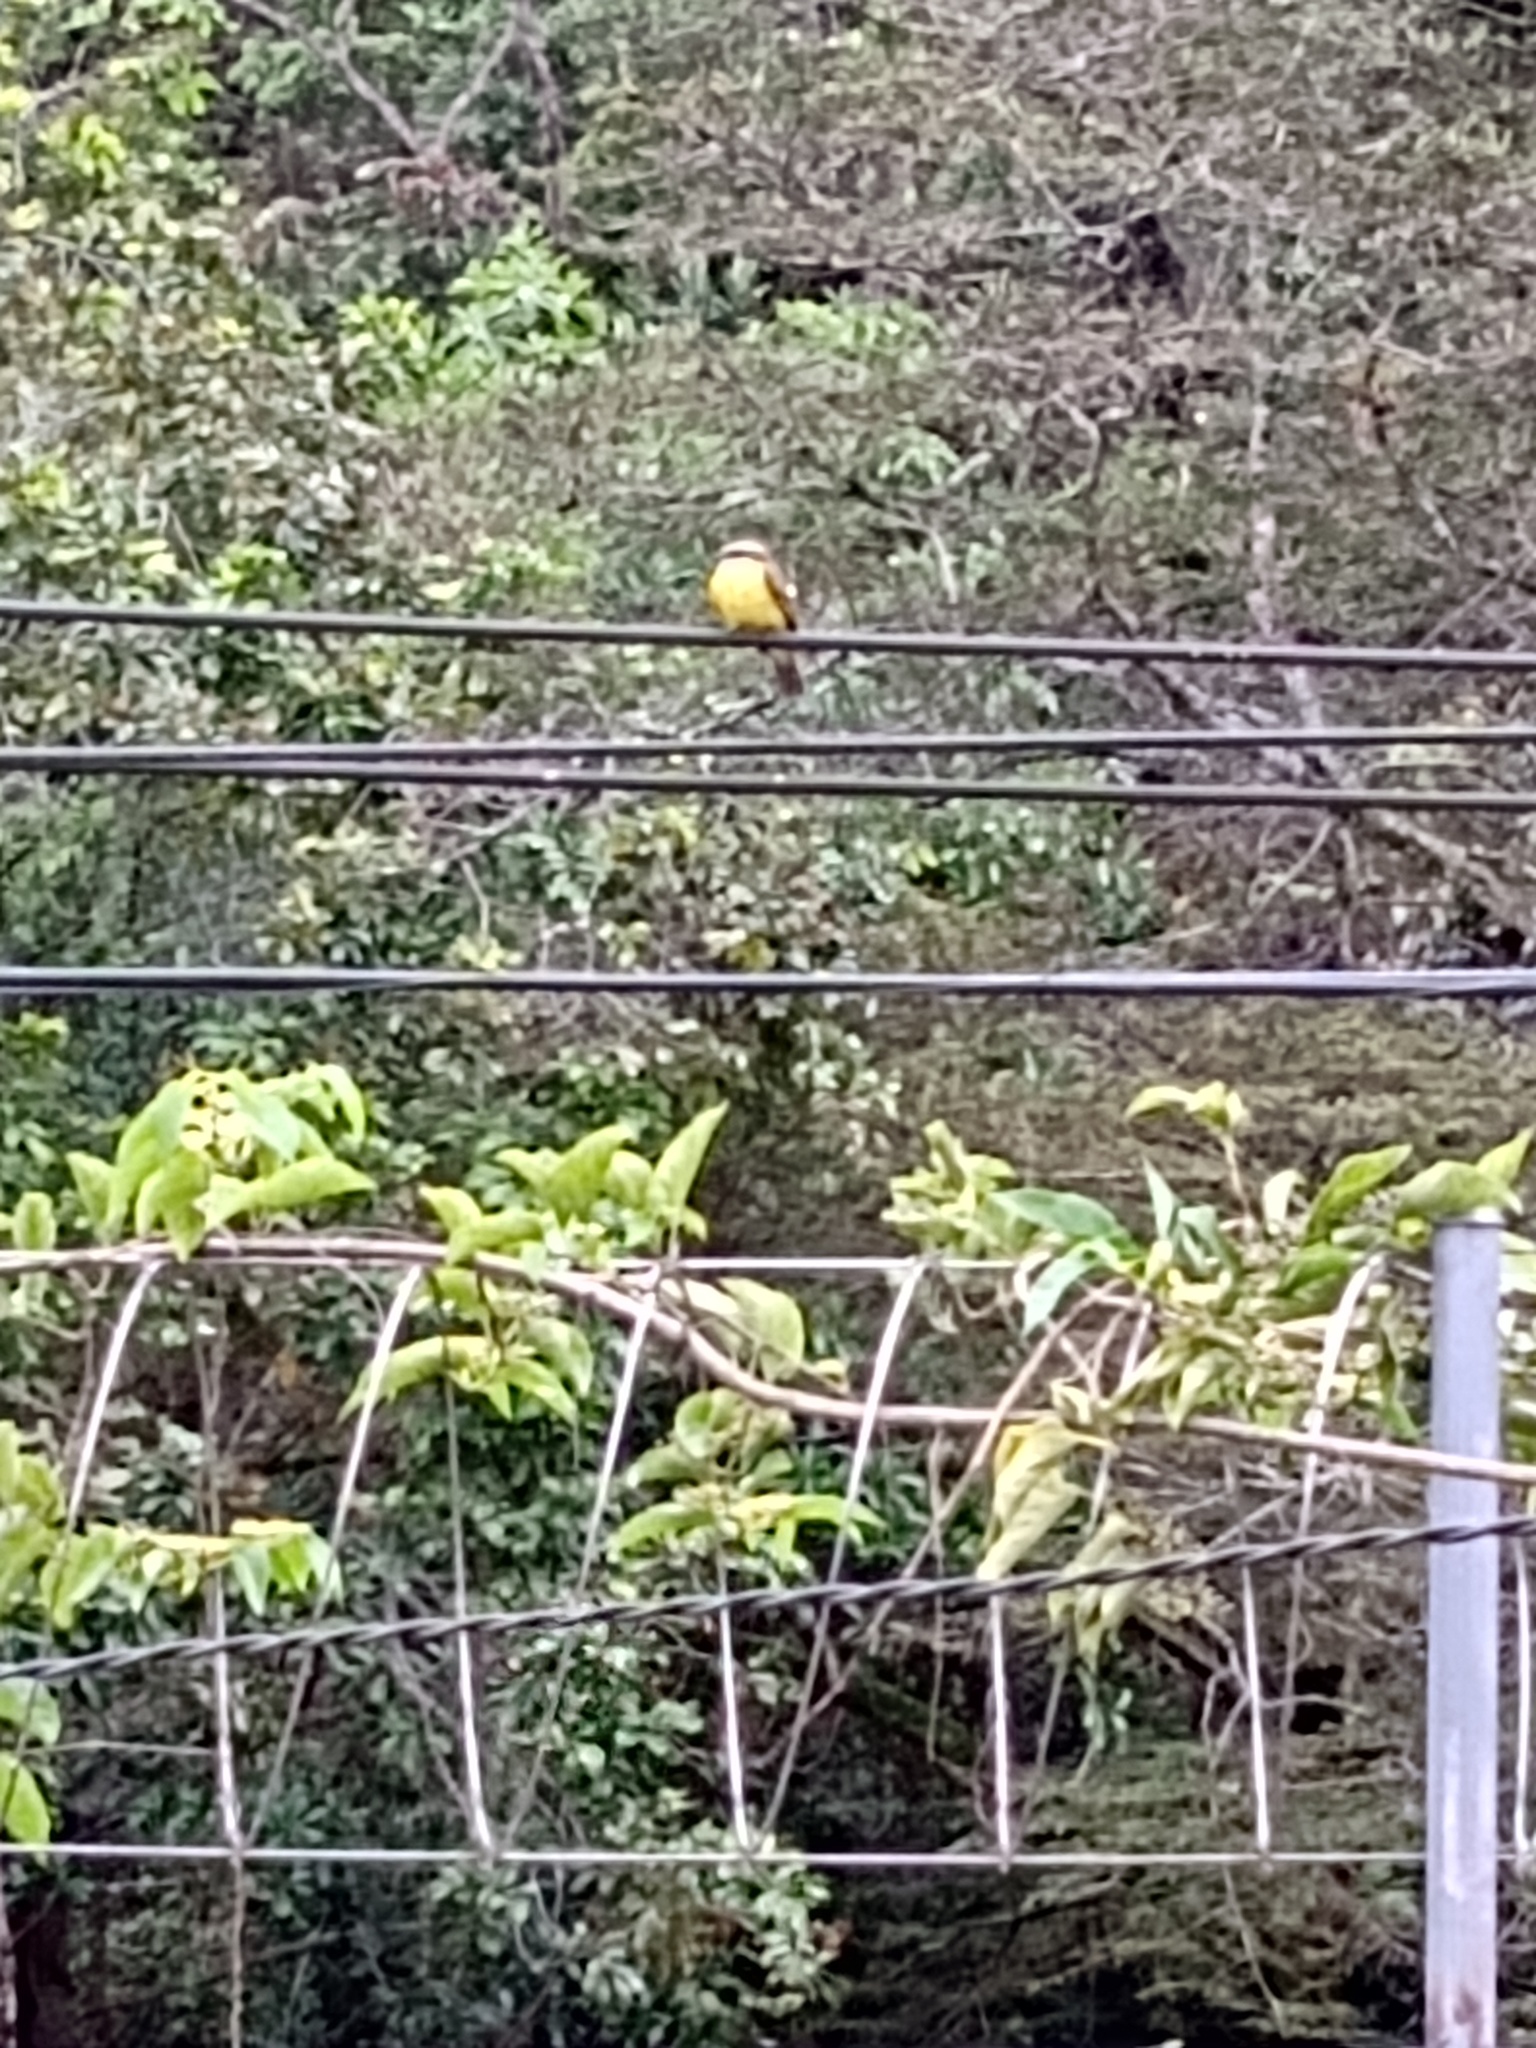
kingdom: Animalia
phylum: Chordata
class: Aves
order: Passeriformes
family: Tyrannidae
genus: Myiozetetes
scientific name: Myiozetetes cayanensis
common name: Rusty-margined flycatcher
